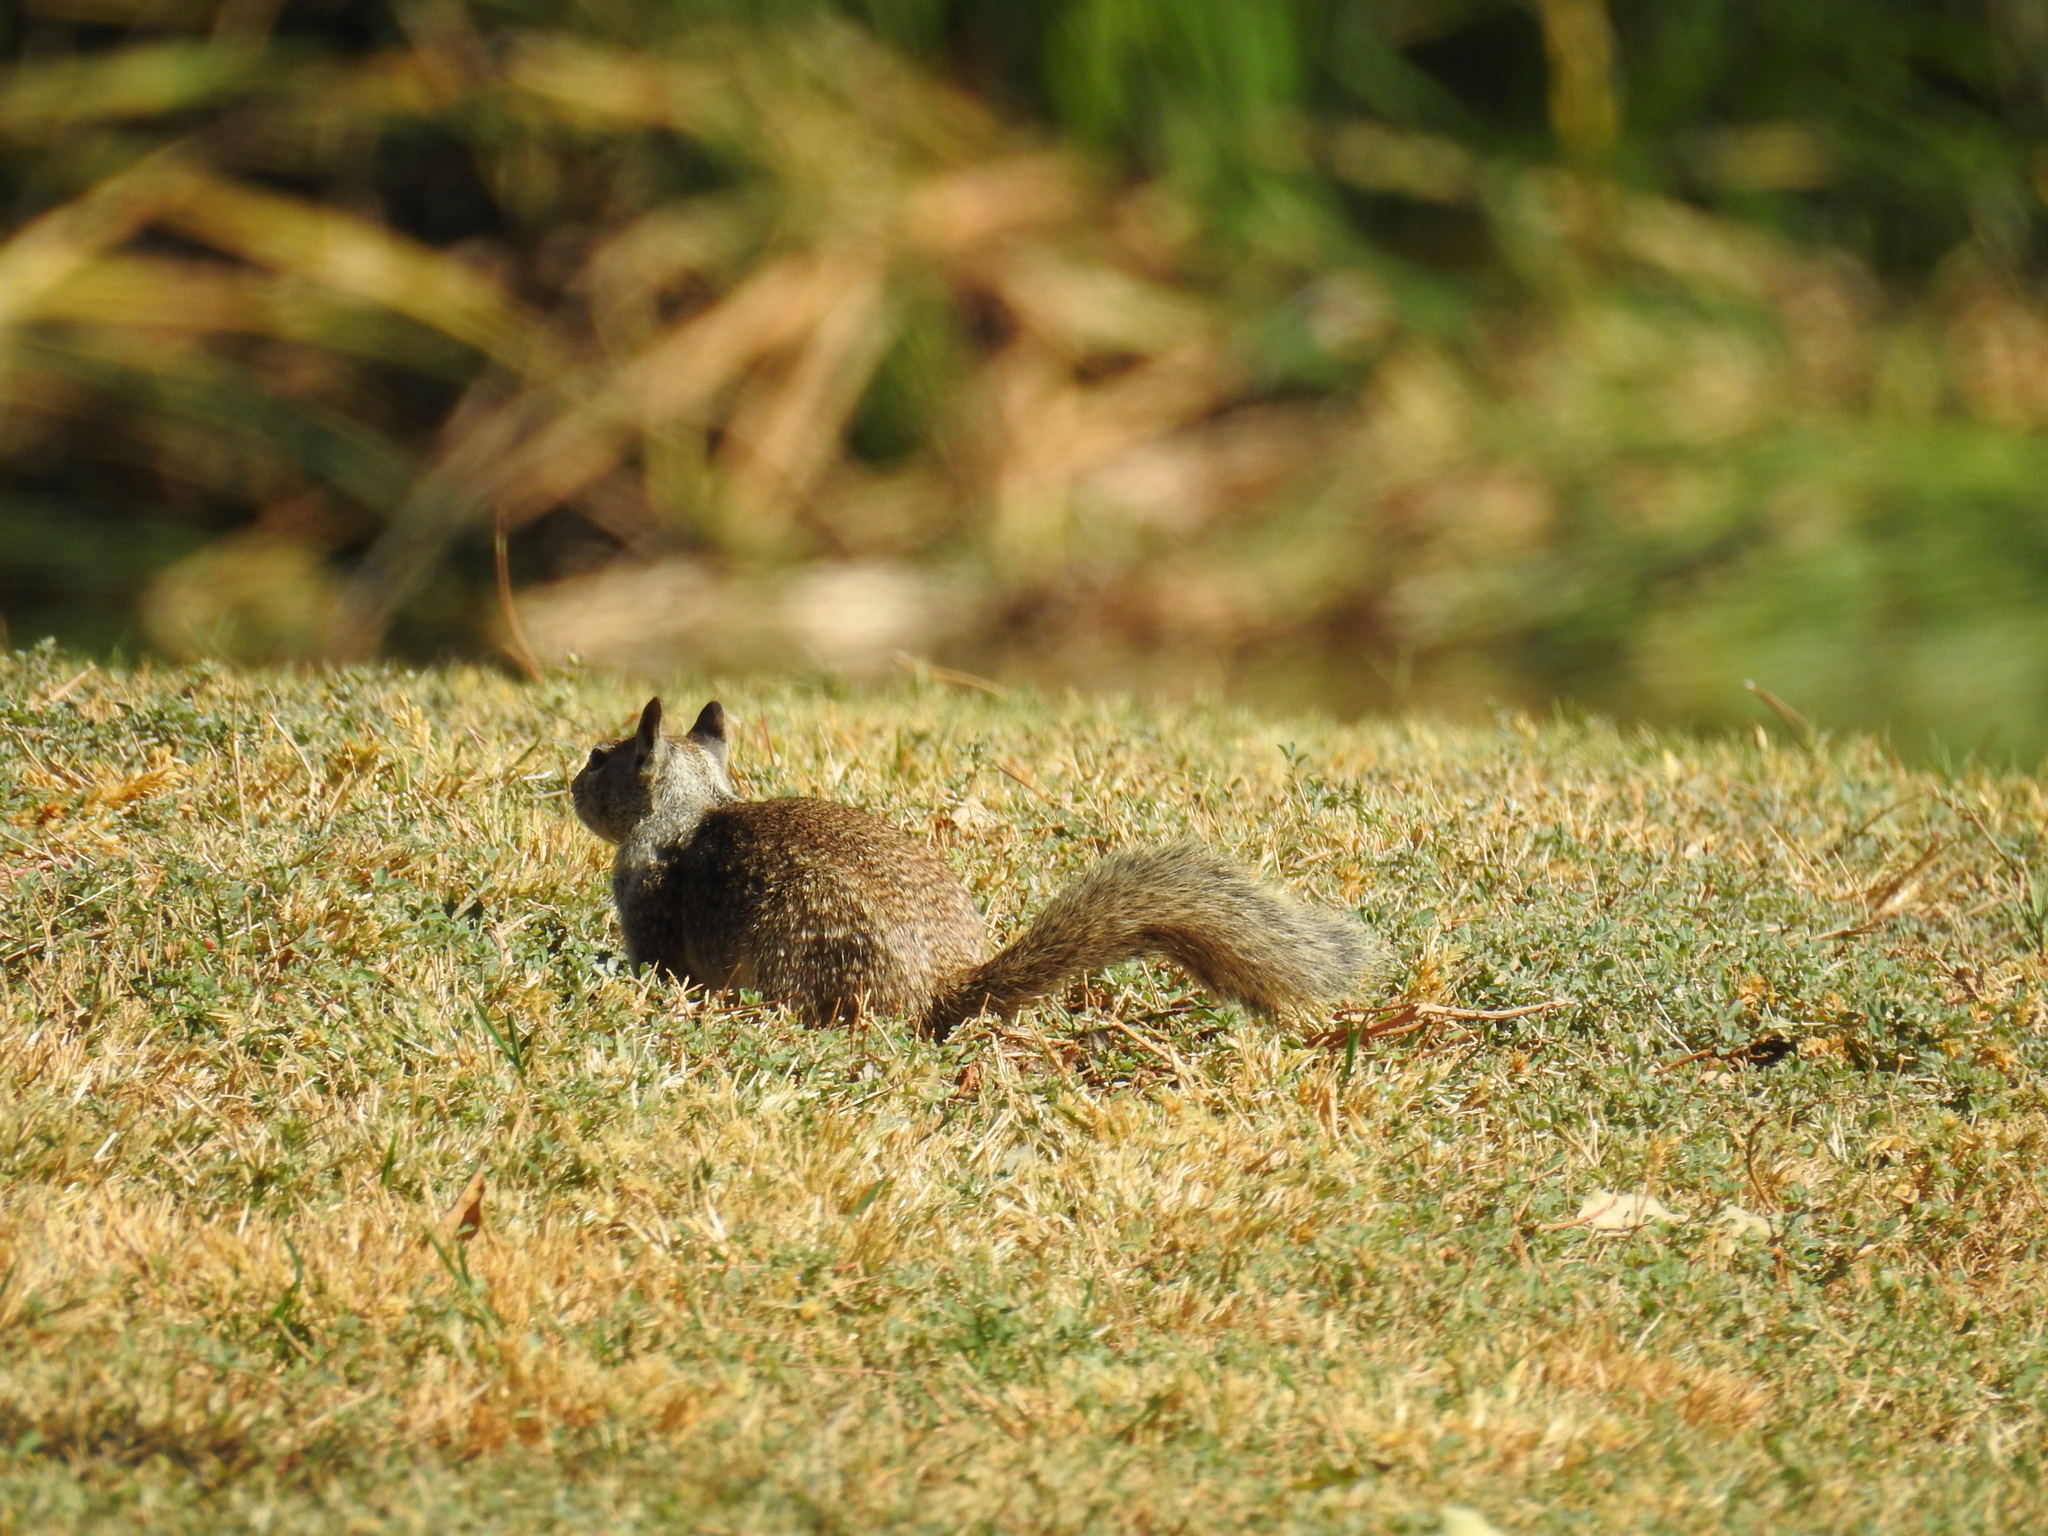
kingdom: Animalia
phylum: Chordata
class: Mammalia
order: Rodentia
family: Sciuridae
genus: Otospermophilus
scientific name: Otospermophilus beecheyi
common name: California ground squirrel
